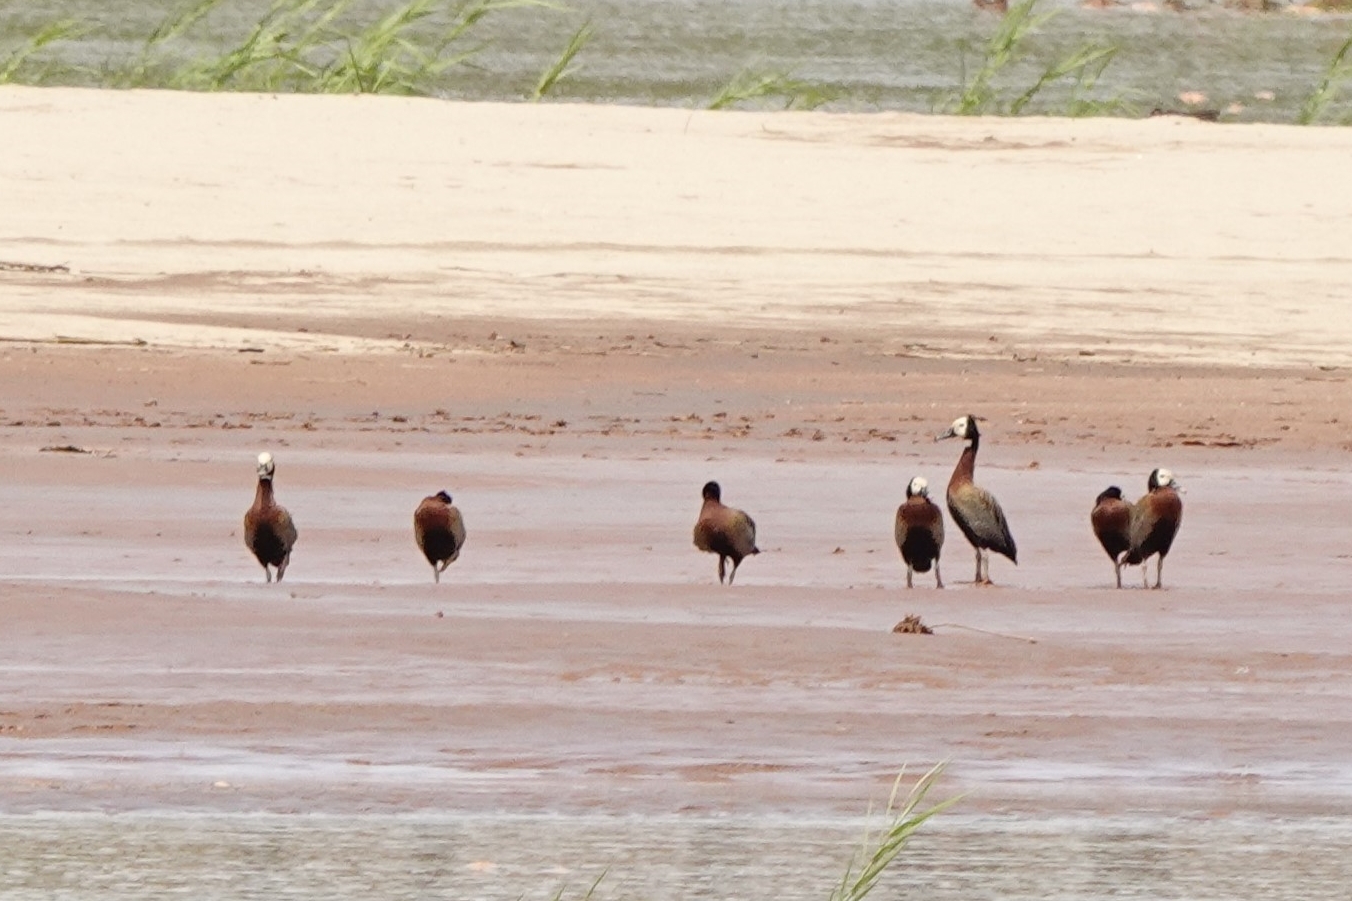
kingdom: Animalia
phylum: Chordata
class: Aves
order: Anseriformes
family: Anatidae
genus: Dendrocygna
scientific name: Dendrocygna viduata
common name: White-faced whistling duck
